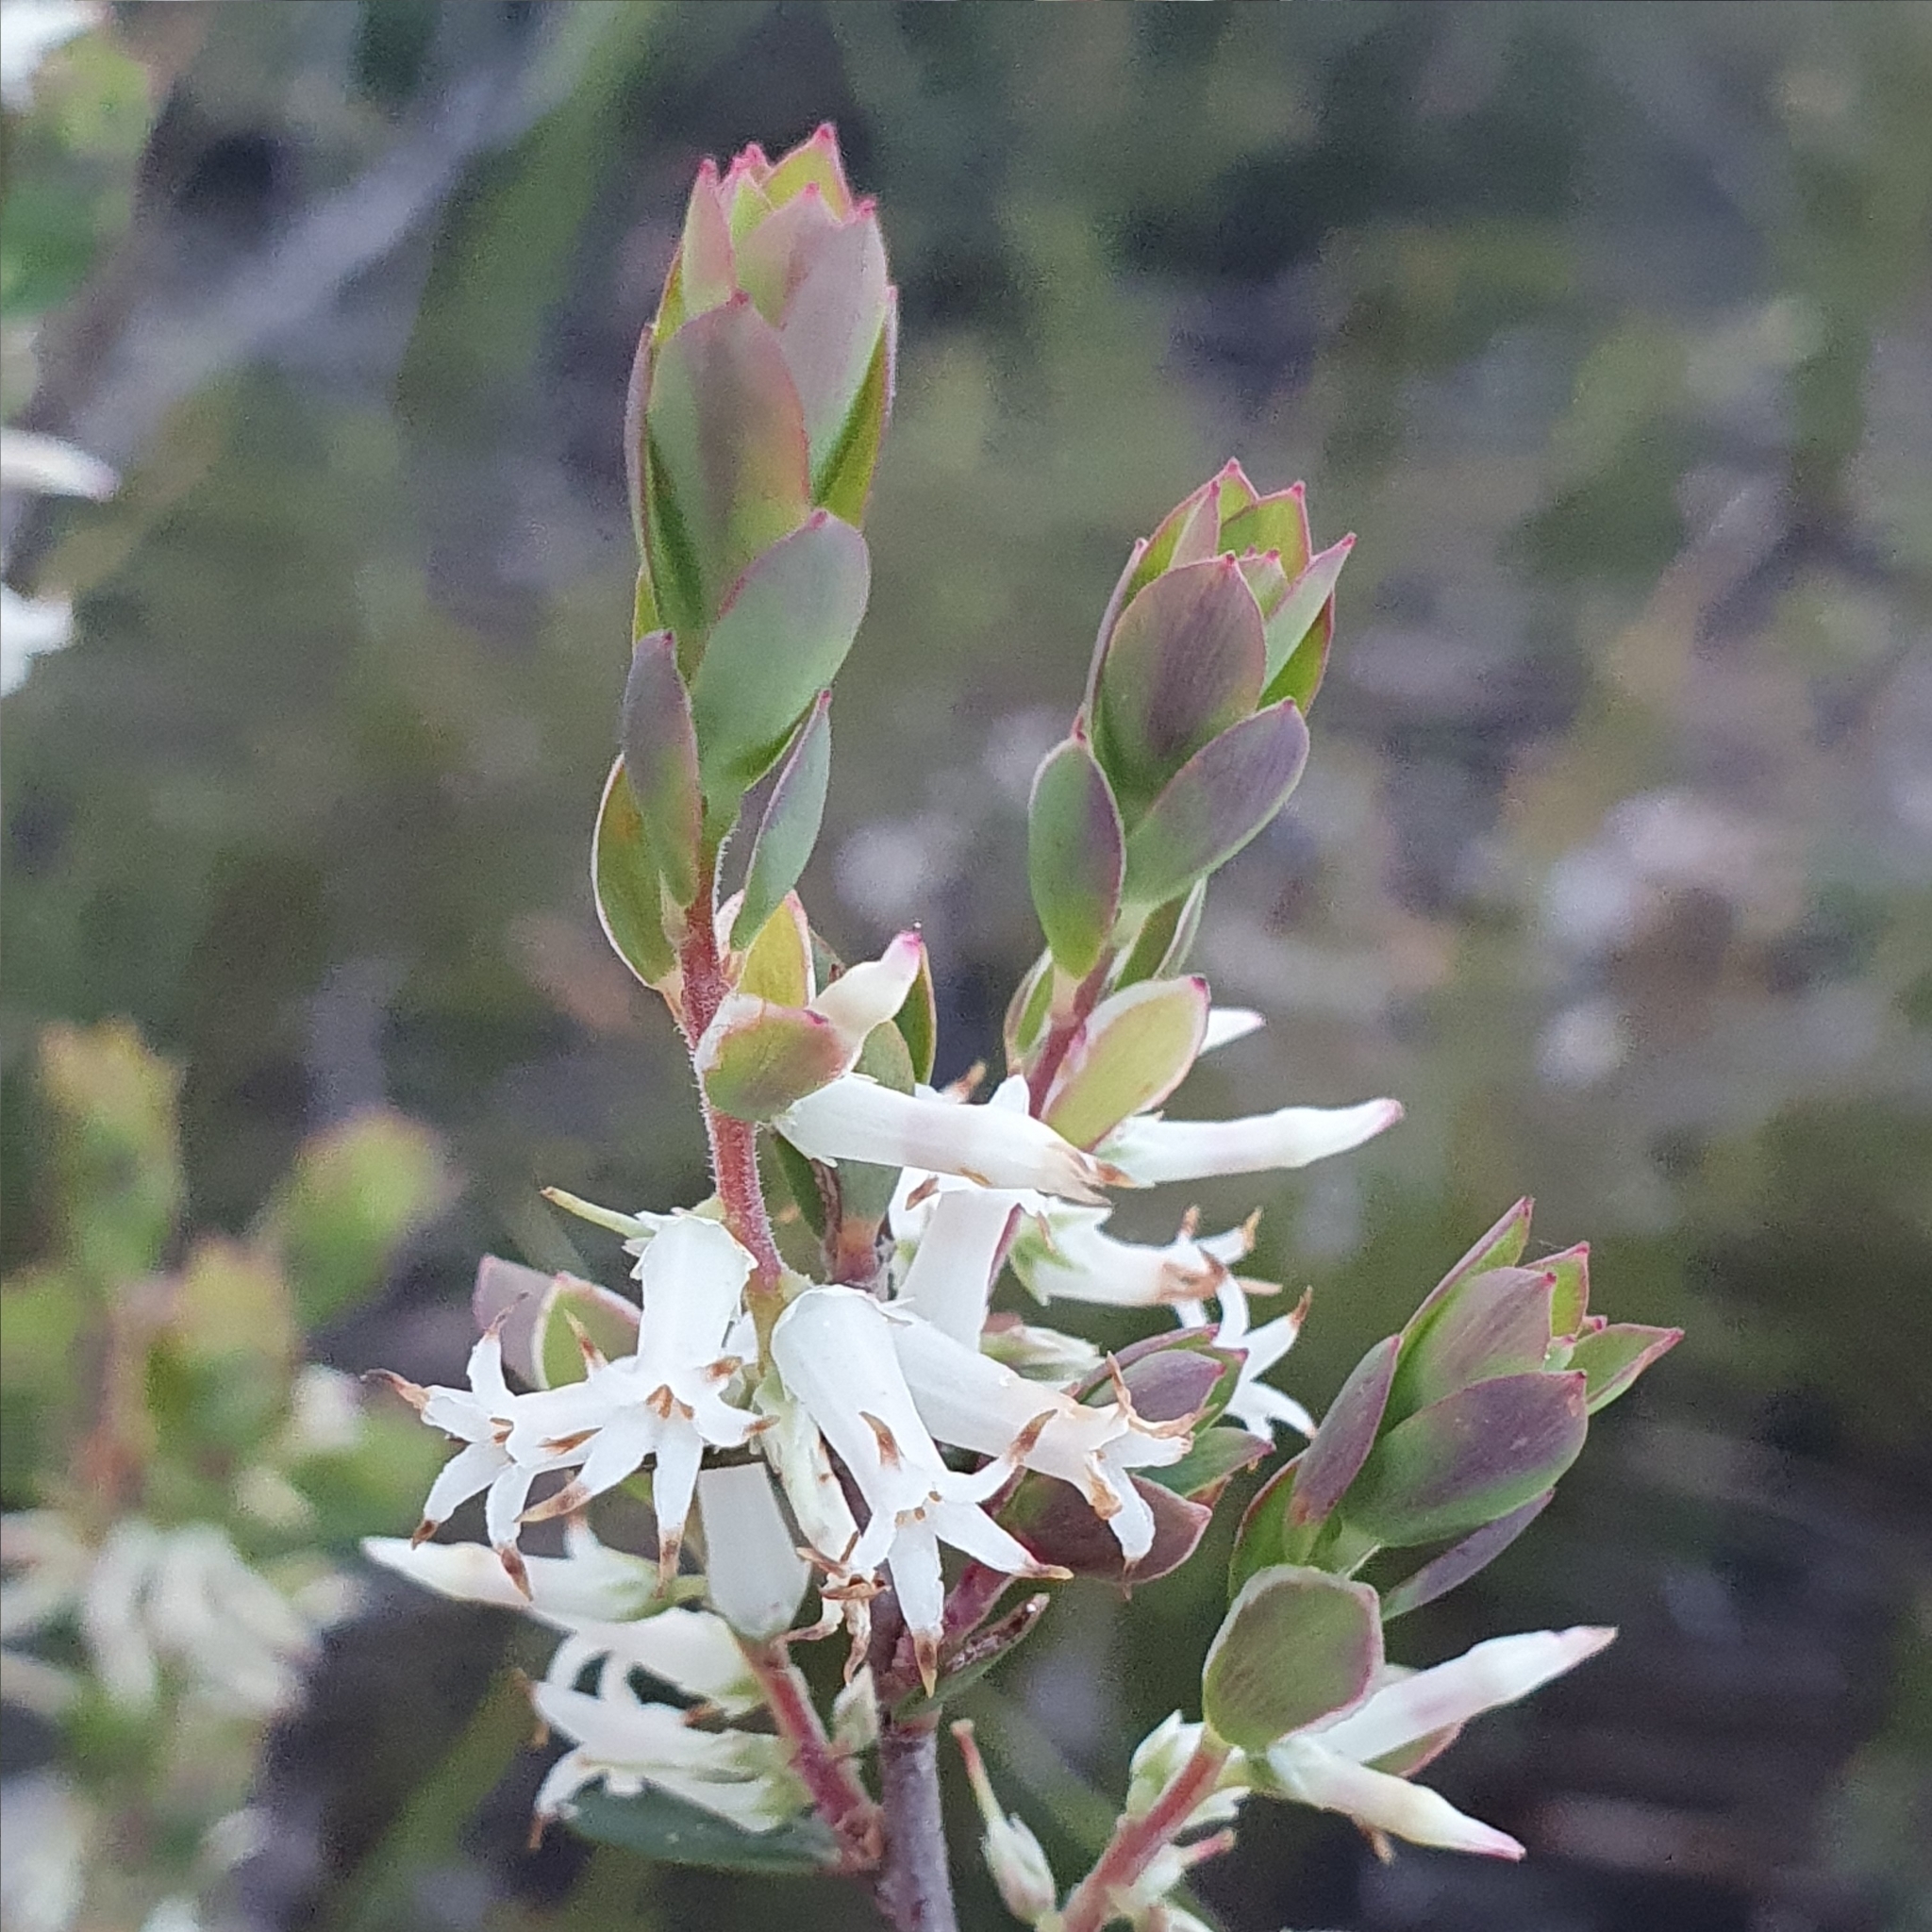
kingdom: Plantae
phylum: Tracheophyta
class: Magnoliopsida
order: Ericales
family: Ericaceae
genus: Brachyloma
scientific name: Brachyloma daphnoides
